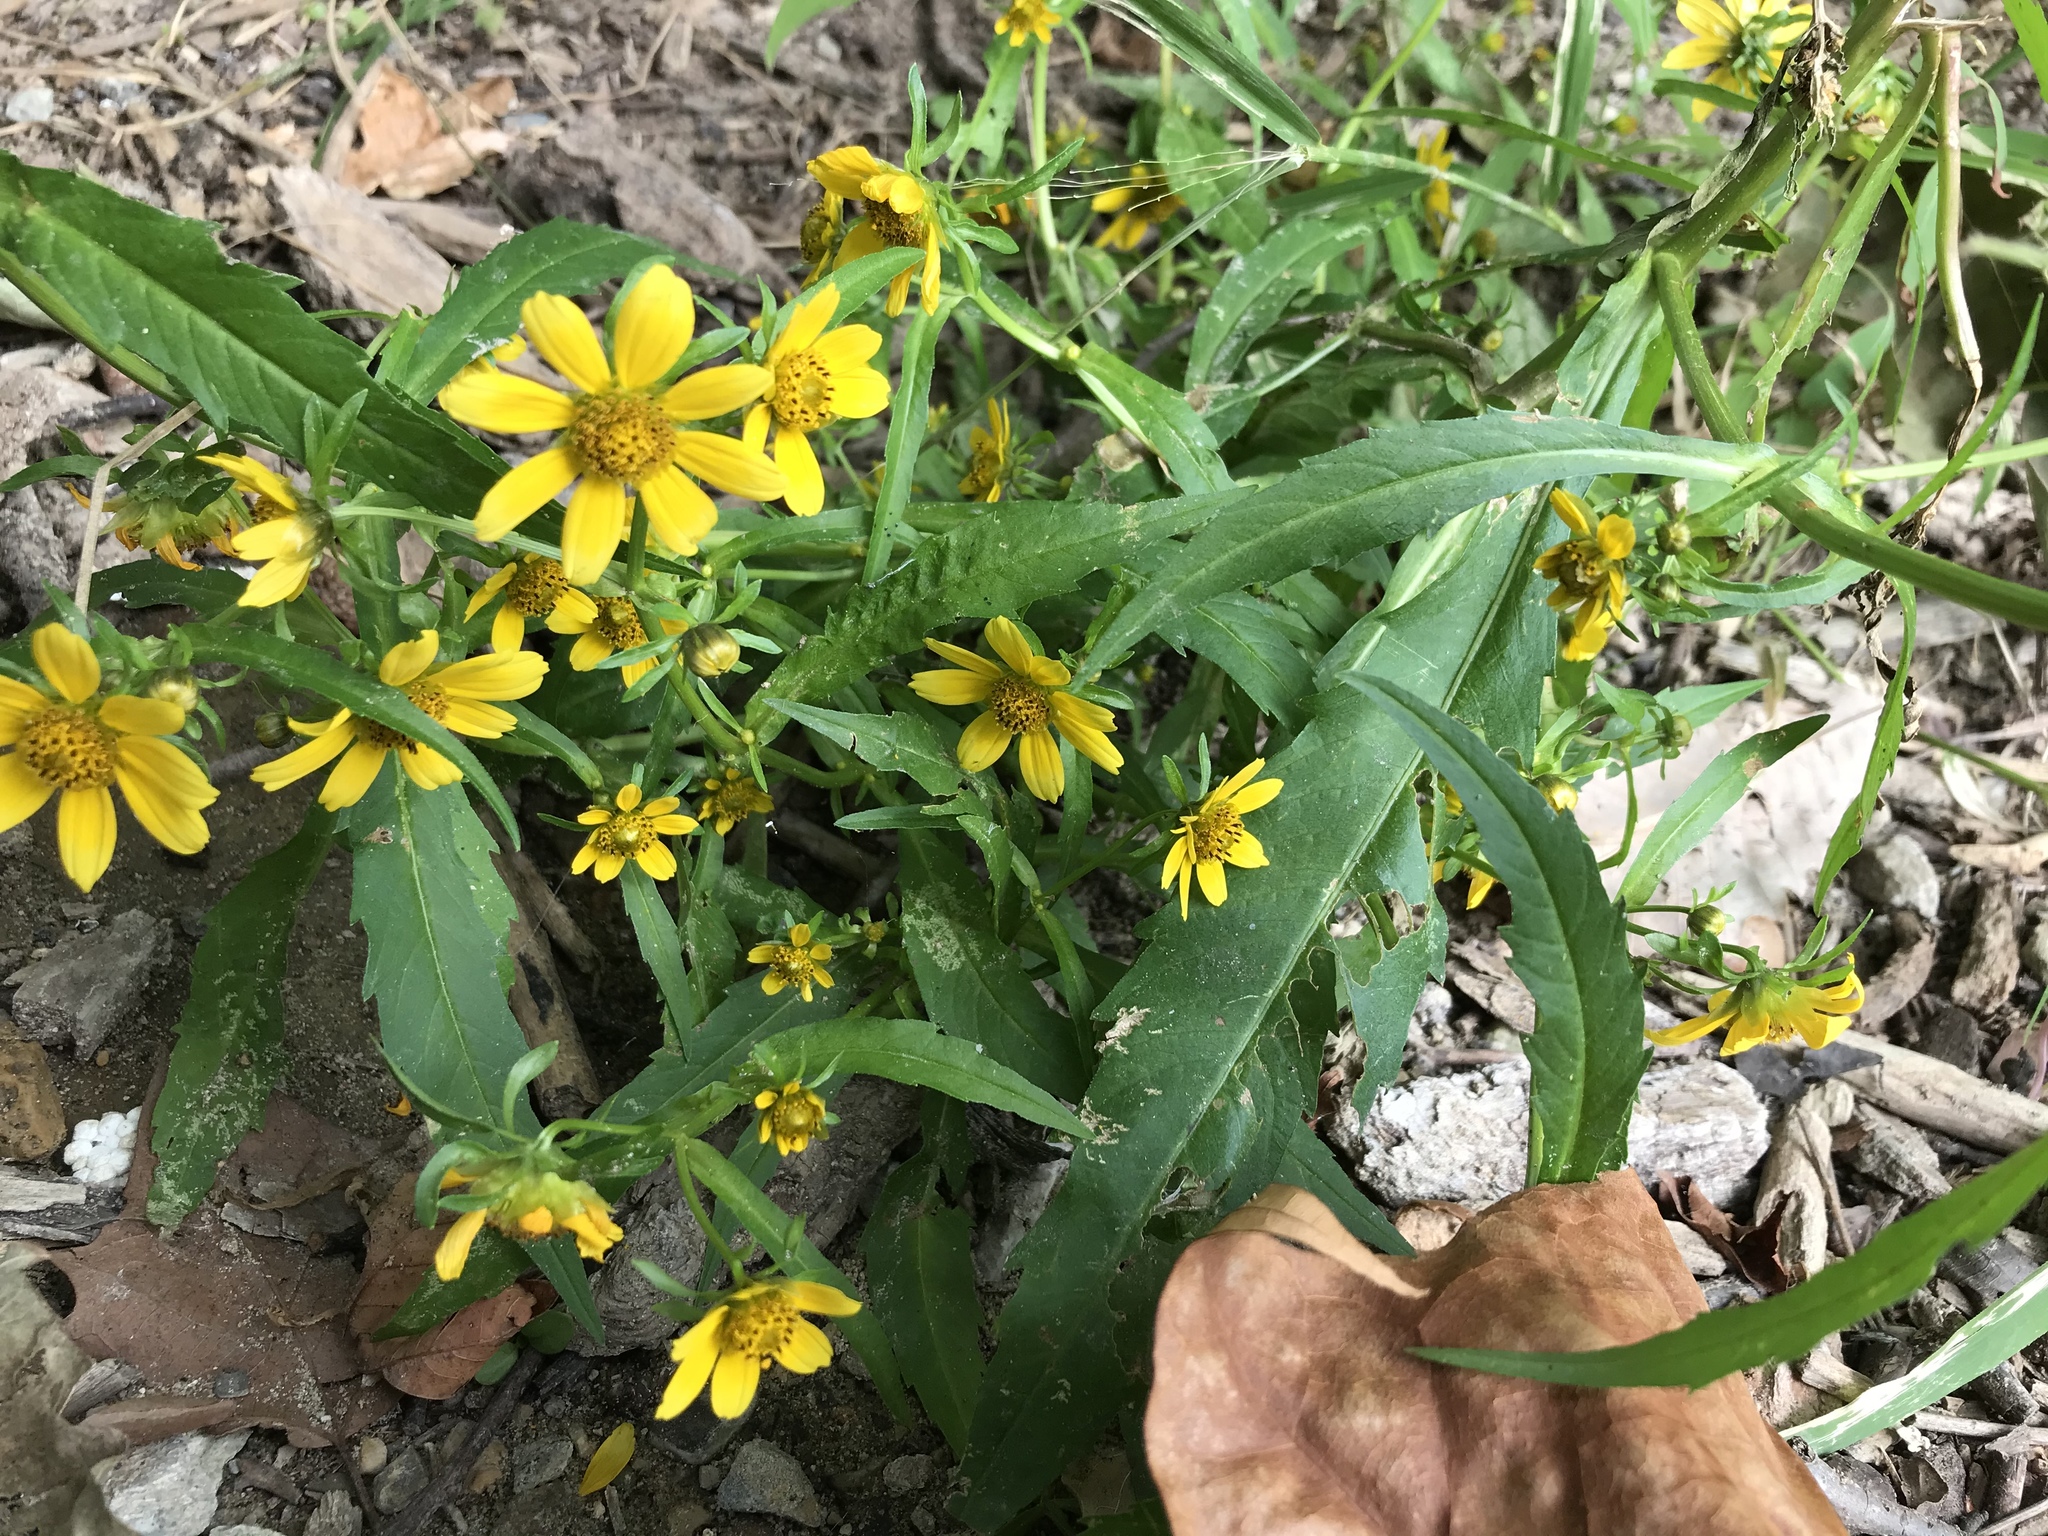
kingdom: Plantae
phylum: Tracheophyta
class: Magnoliopsida
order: Asterales
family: Asteraceae
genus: Bidens
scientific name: Bidens cernua
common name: Nodding bur-marigold
